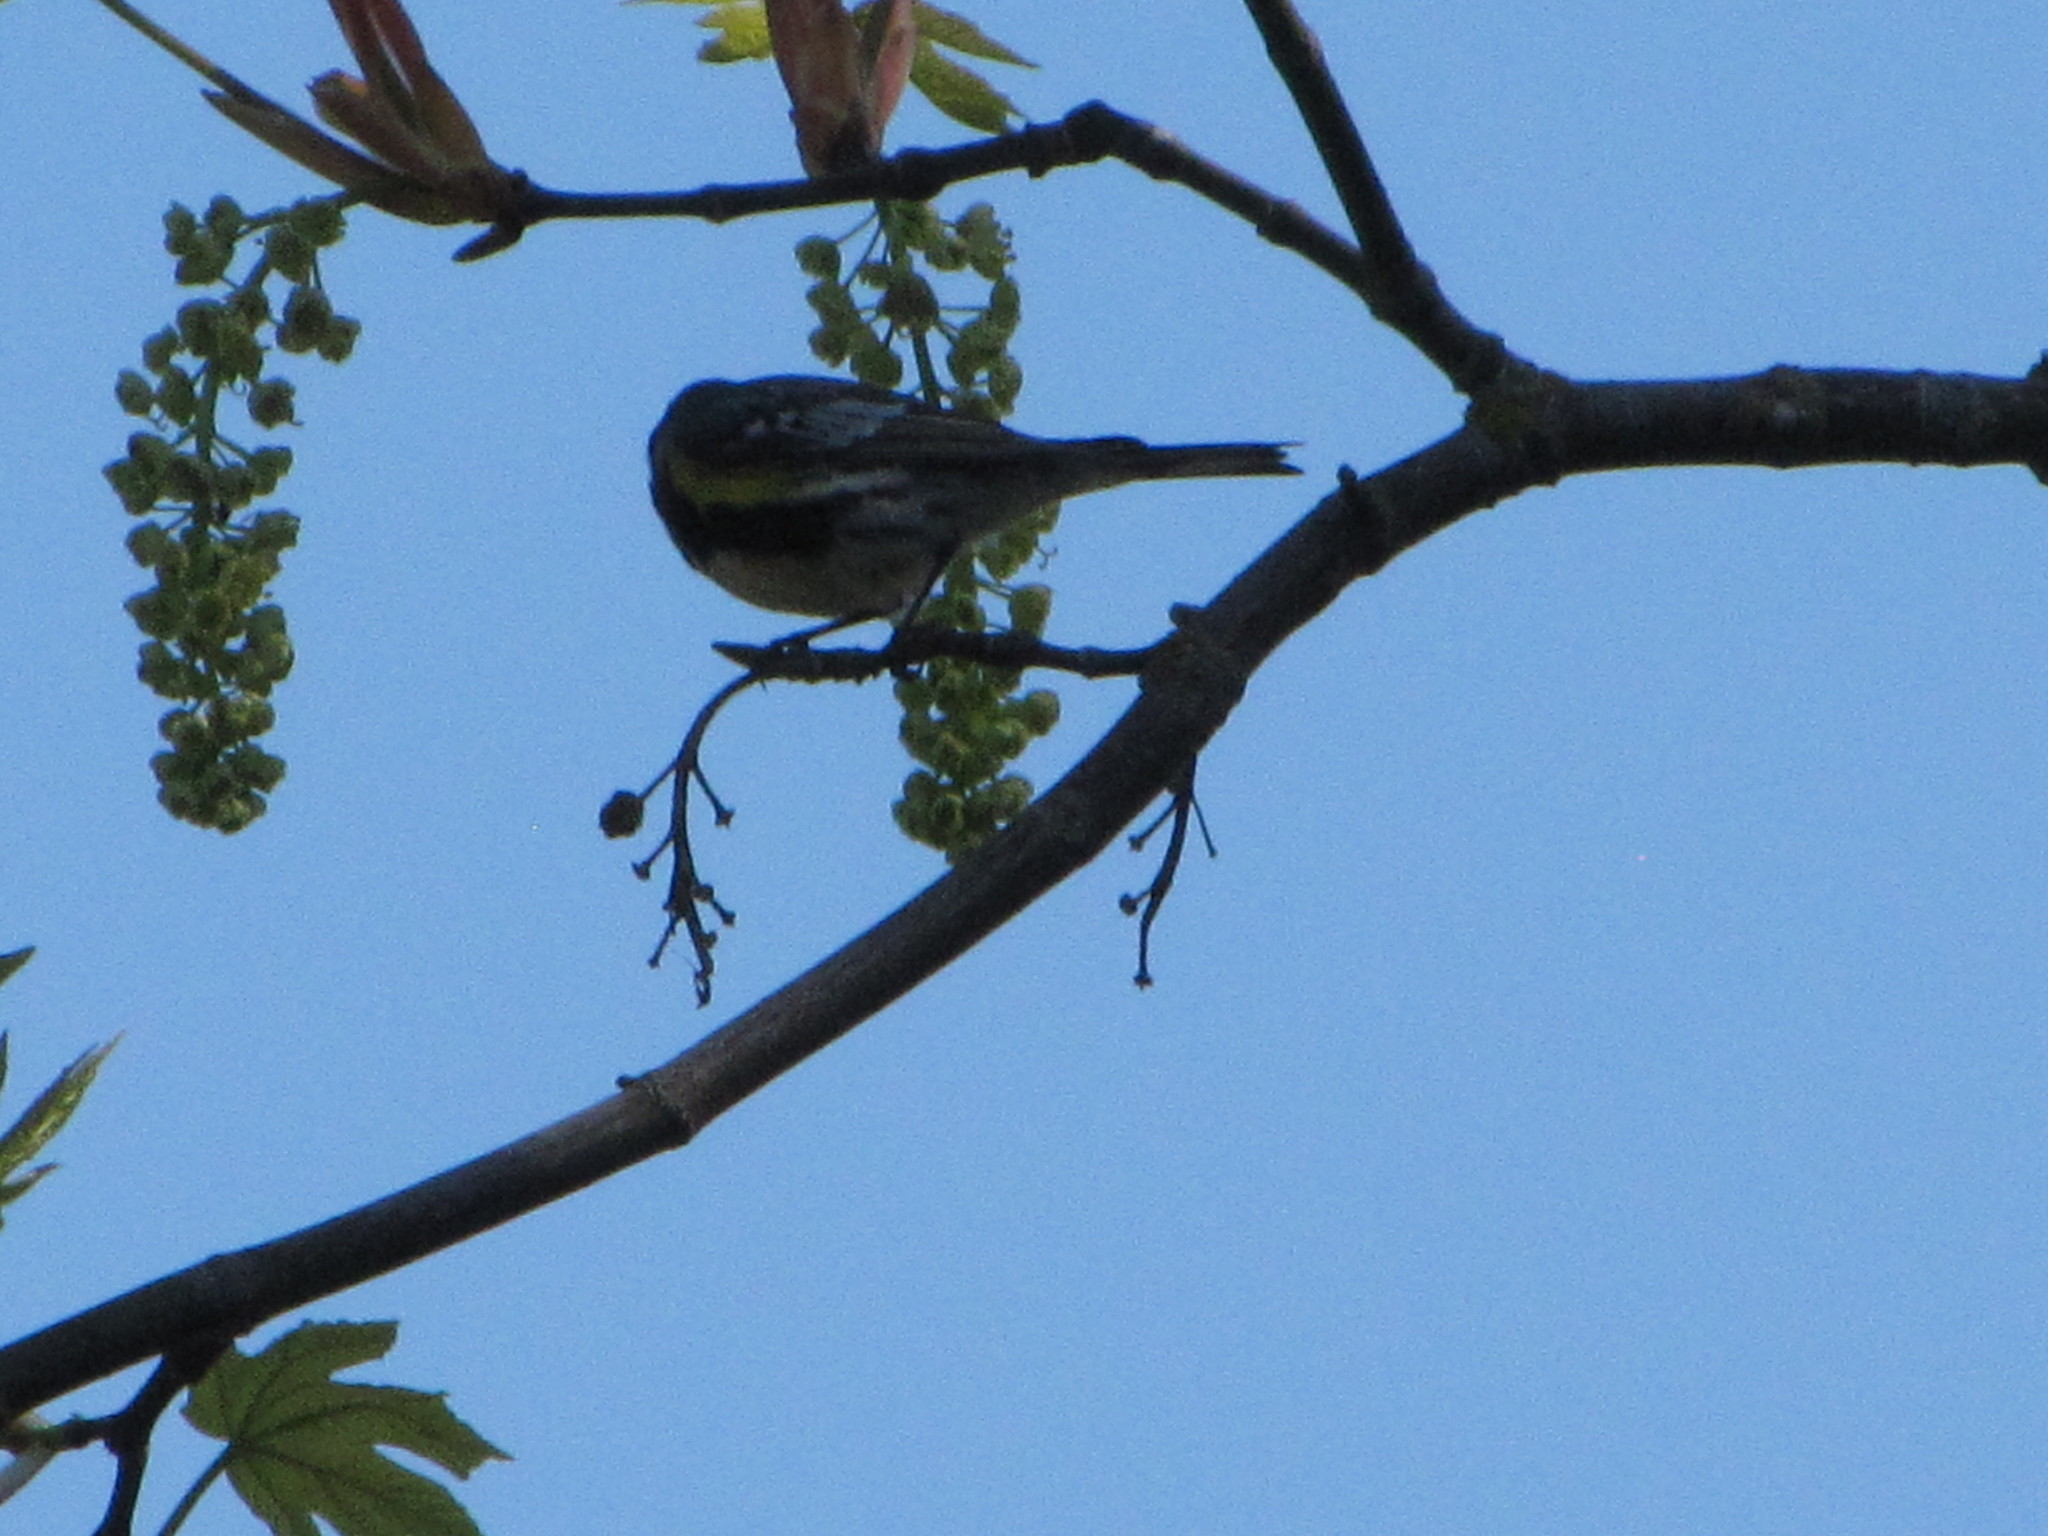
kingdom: Animalia
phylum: Chordata
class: Aves
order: Passeriformes
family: Parulidae
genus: Setophaga
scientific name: Setophaga auduboni
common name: Audubon's warbler
